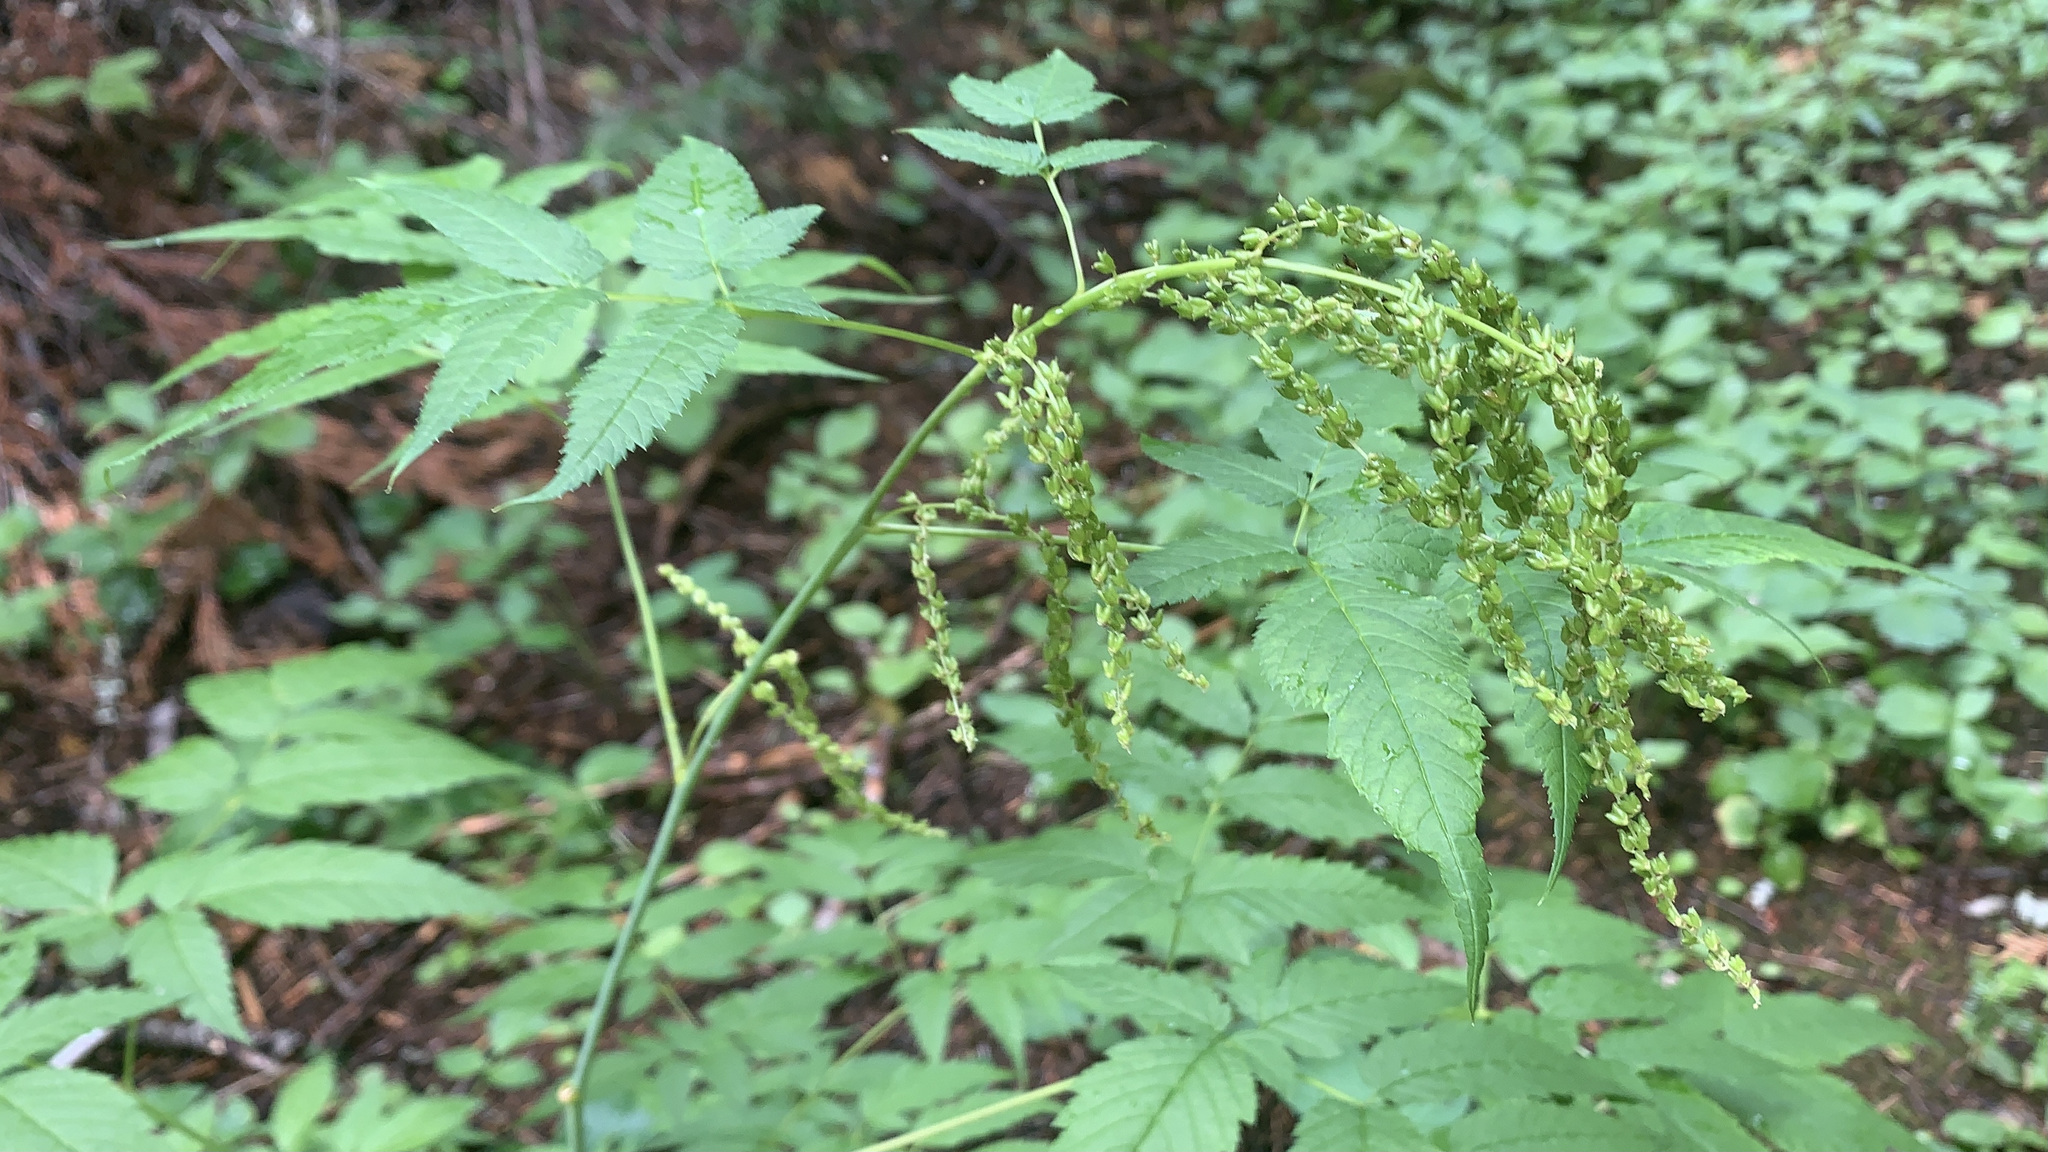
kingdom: Plantae
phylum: Tracheophyta
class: Magnoliopsida
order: Rosales
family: Rosaceae
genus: Aruncus
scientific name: Aruncus dioicus
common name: Buck's-beard
